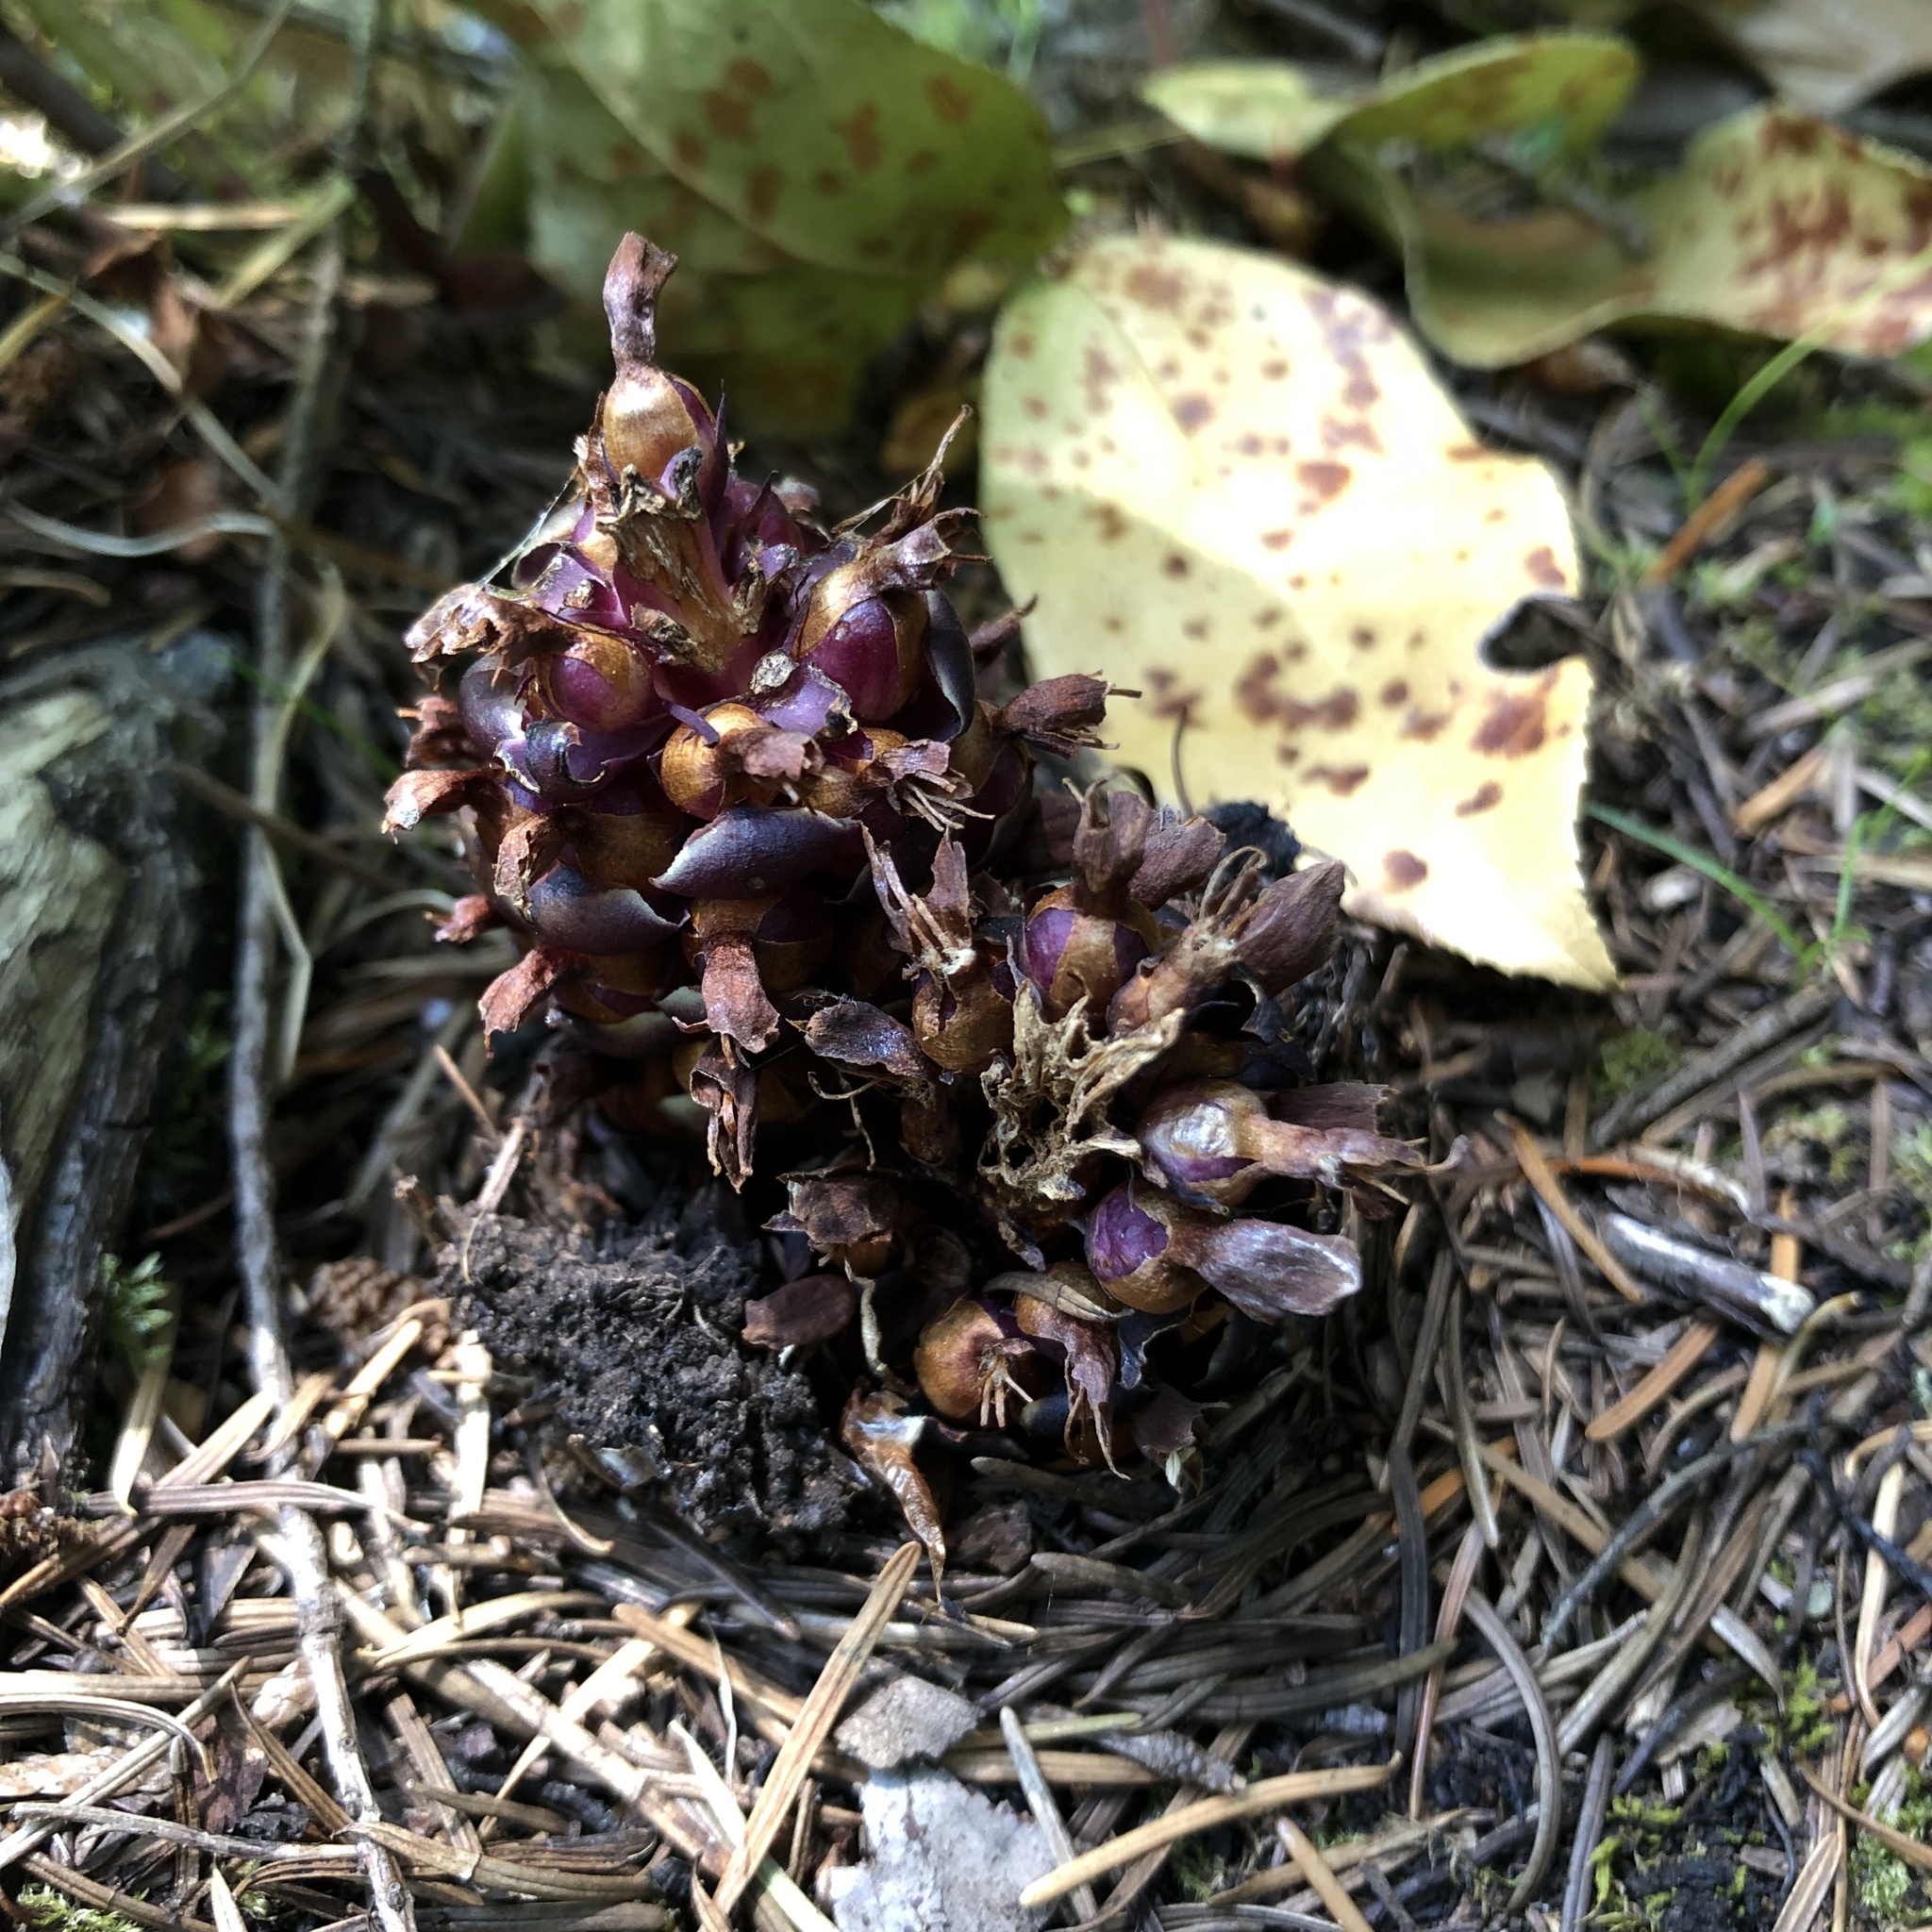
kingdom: Plantae
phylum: Tracheophyta
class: Magnoliopsida
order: Lamiales
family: Orobanchaceae
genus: Kopsiopsis
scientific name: Kopsiopsis hookeri
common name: Hooker's groundcone
